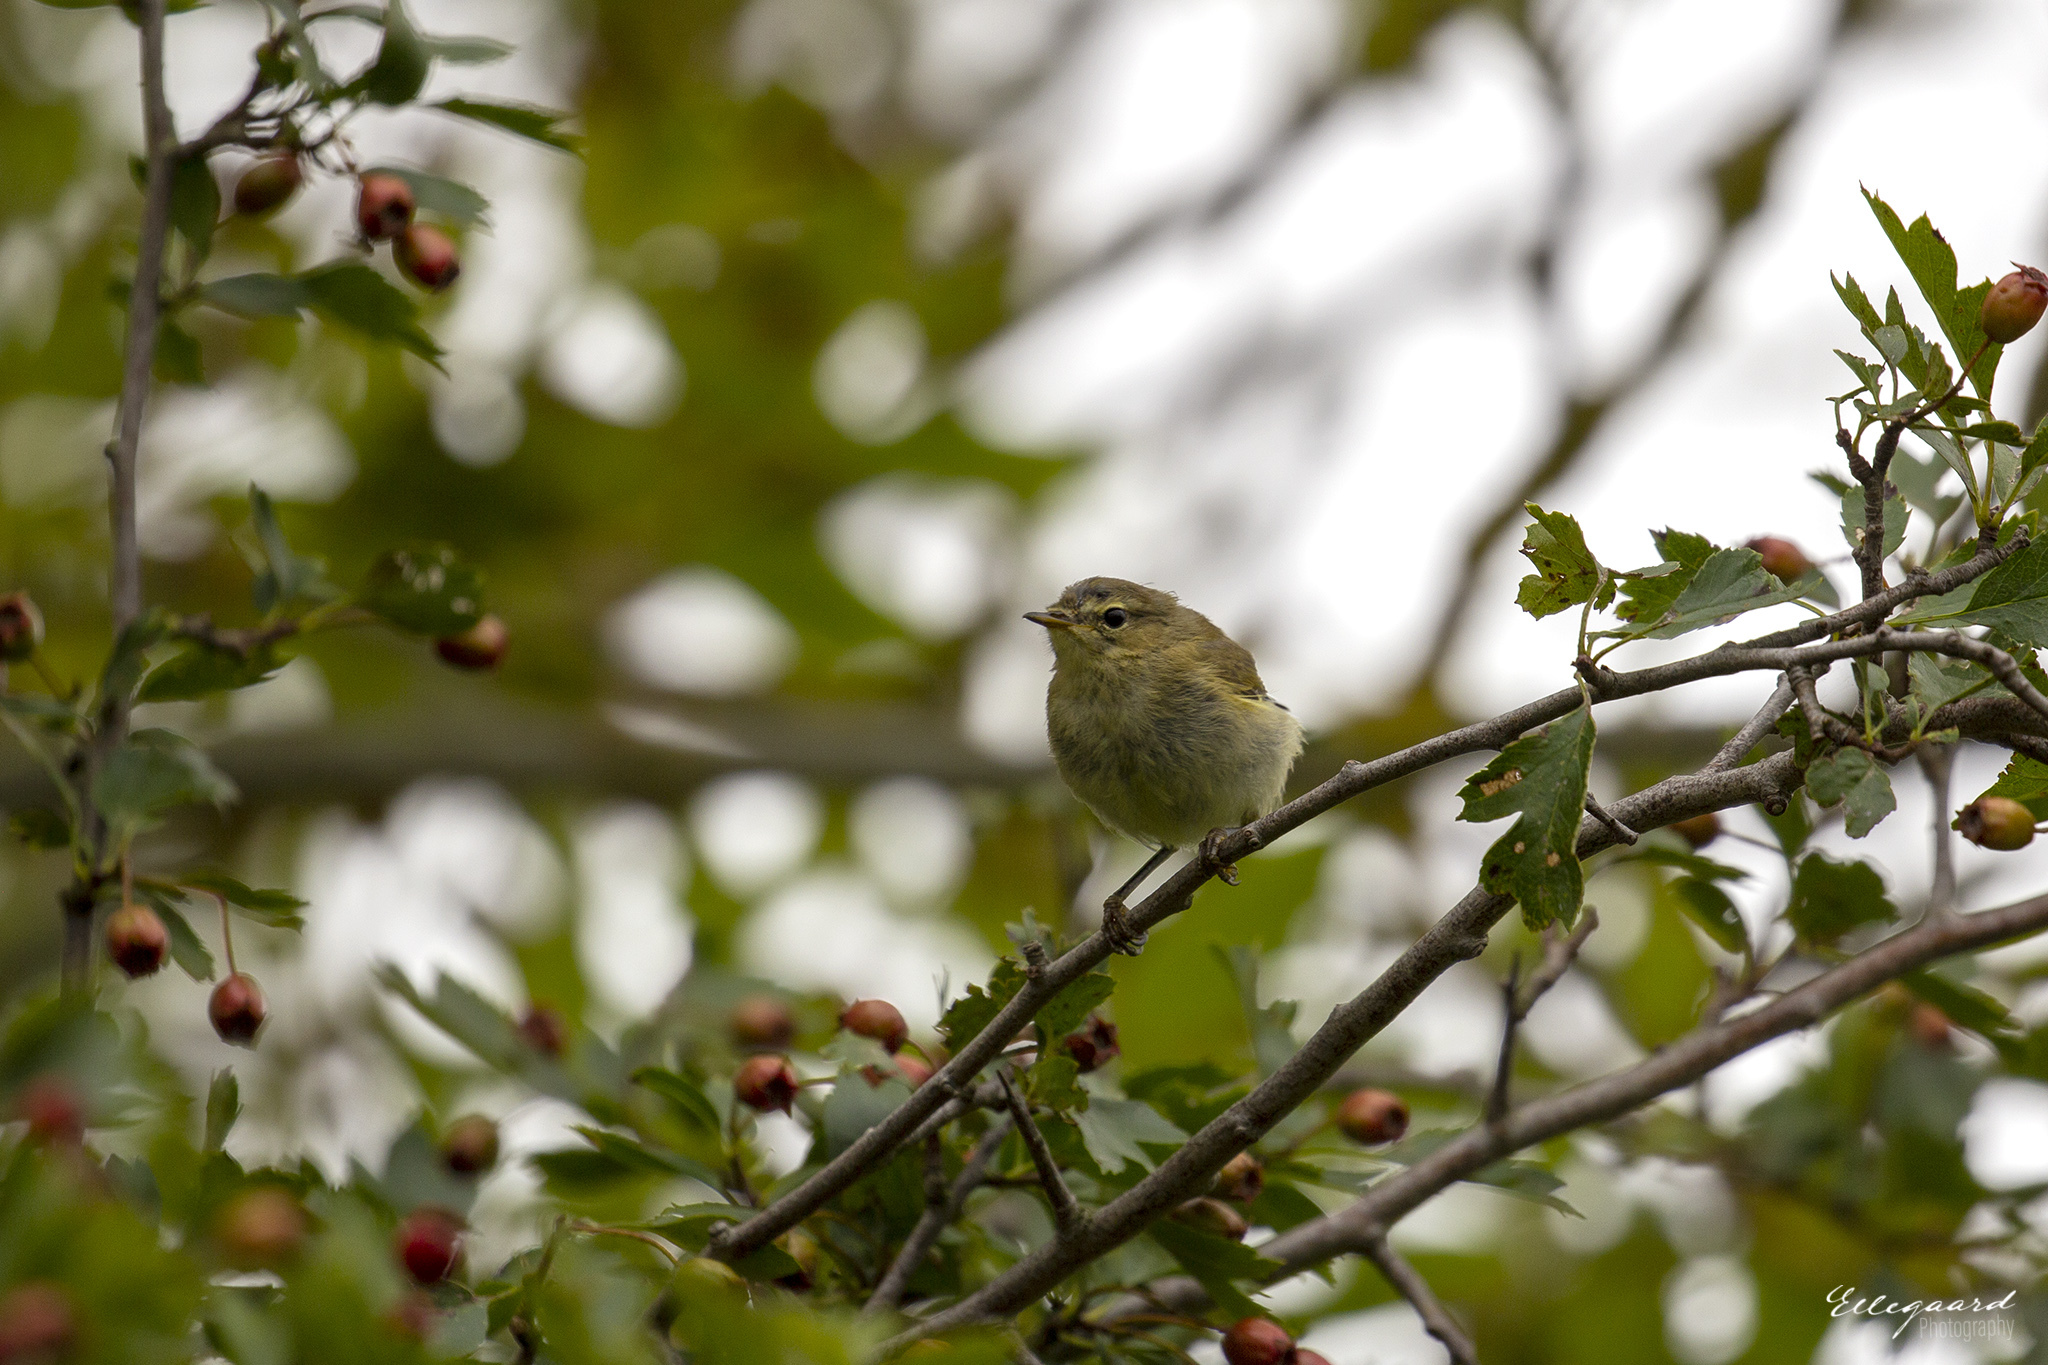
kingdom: Animalia
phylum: Chordata
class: Aves
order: Passeriformes
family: Phylloscopidae
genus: Phylloscopus
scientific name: Phylloscopus trochilus
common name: Willow warbler
